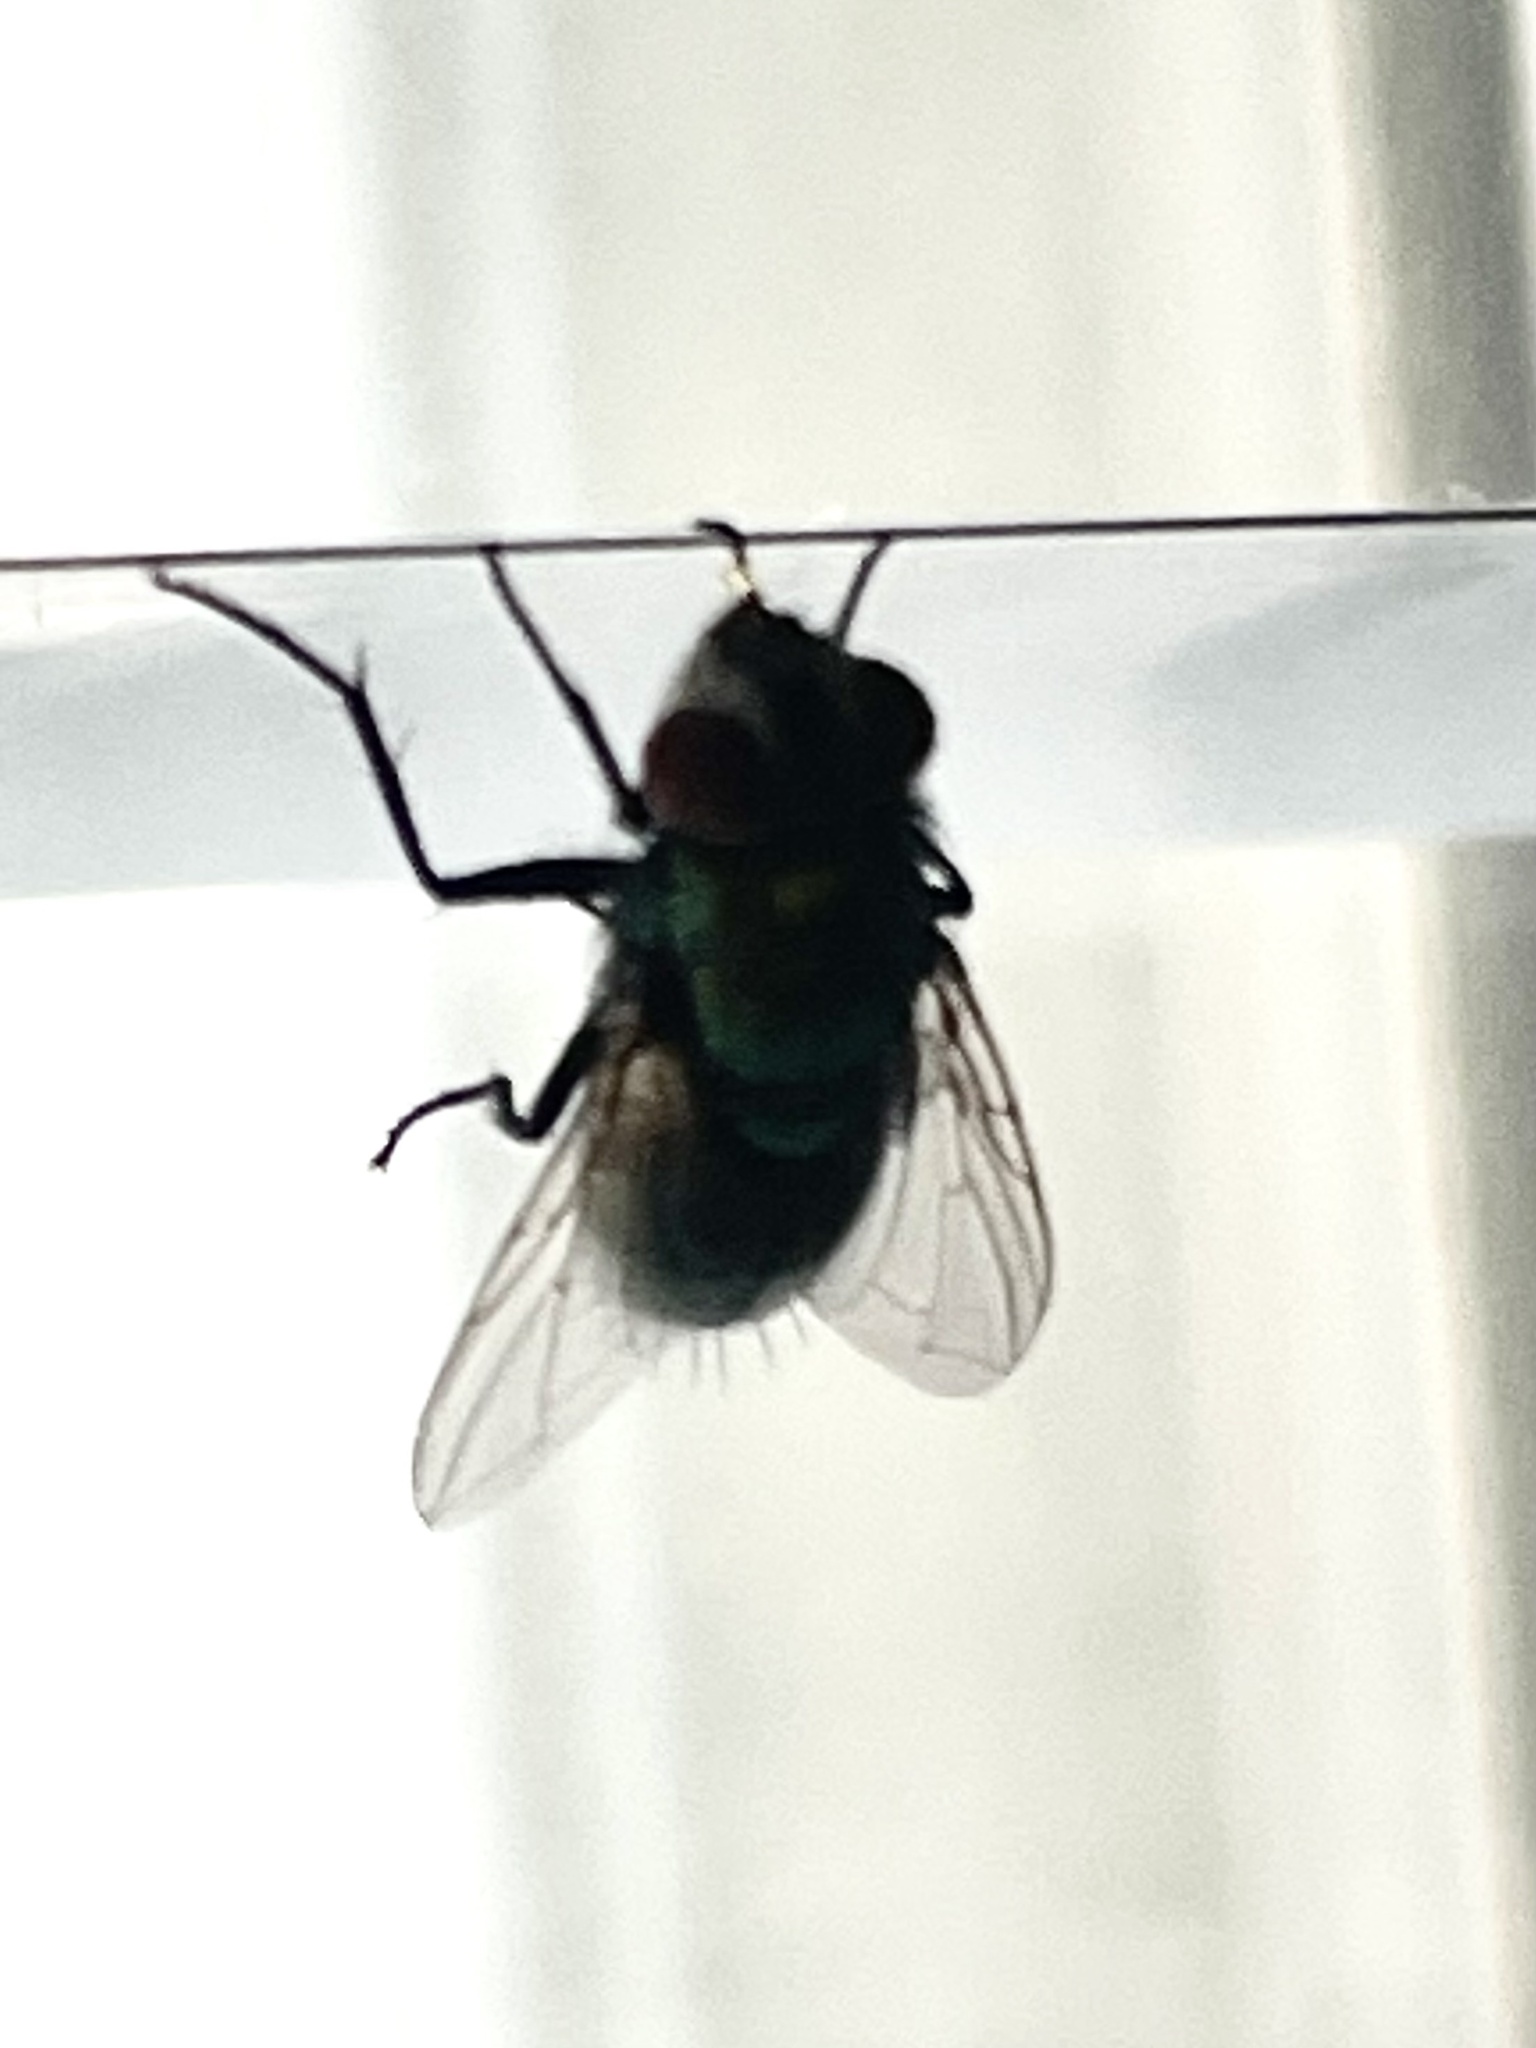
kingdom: Animalia
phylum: Arthropoda
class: Insecta
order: Diptera
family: Calliphoridae
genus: Lucilia
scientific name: Lucilia caeruleiviridis
